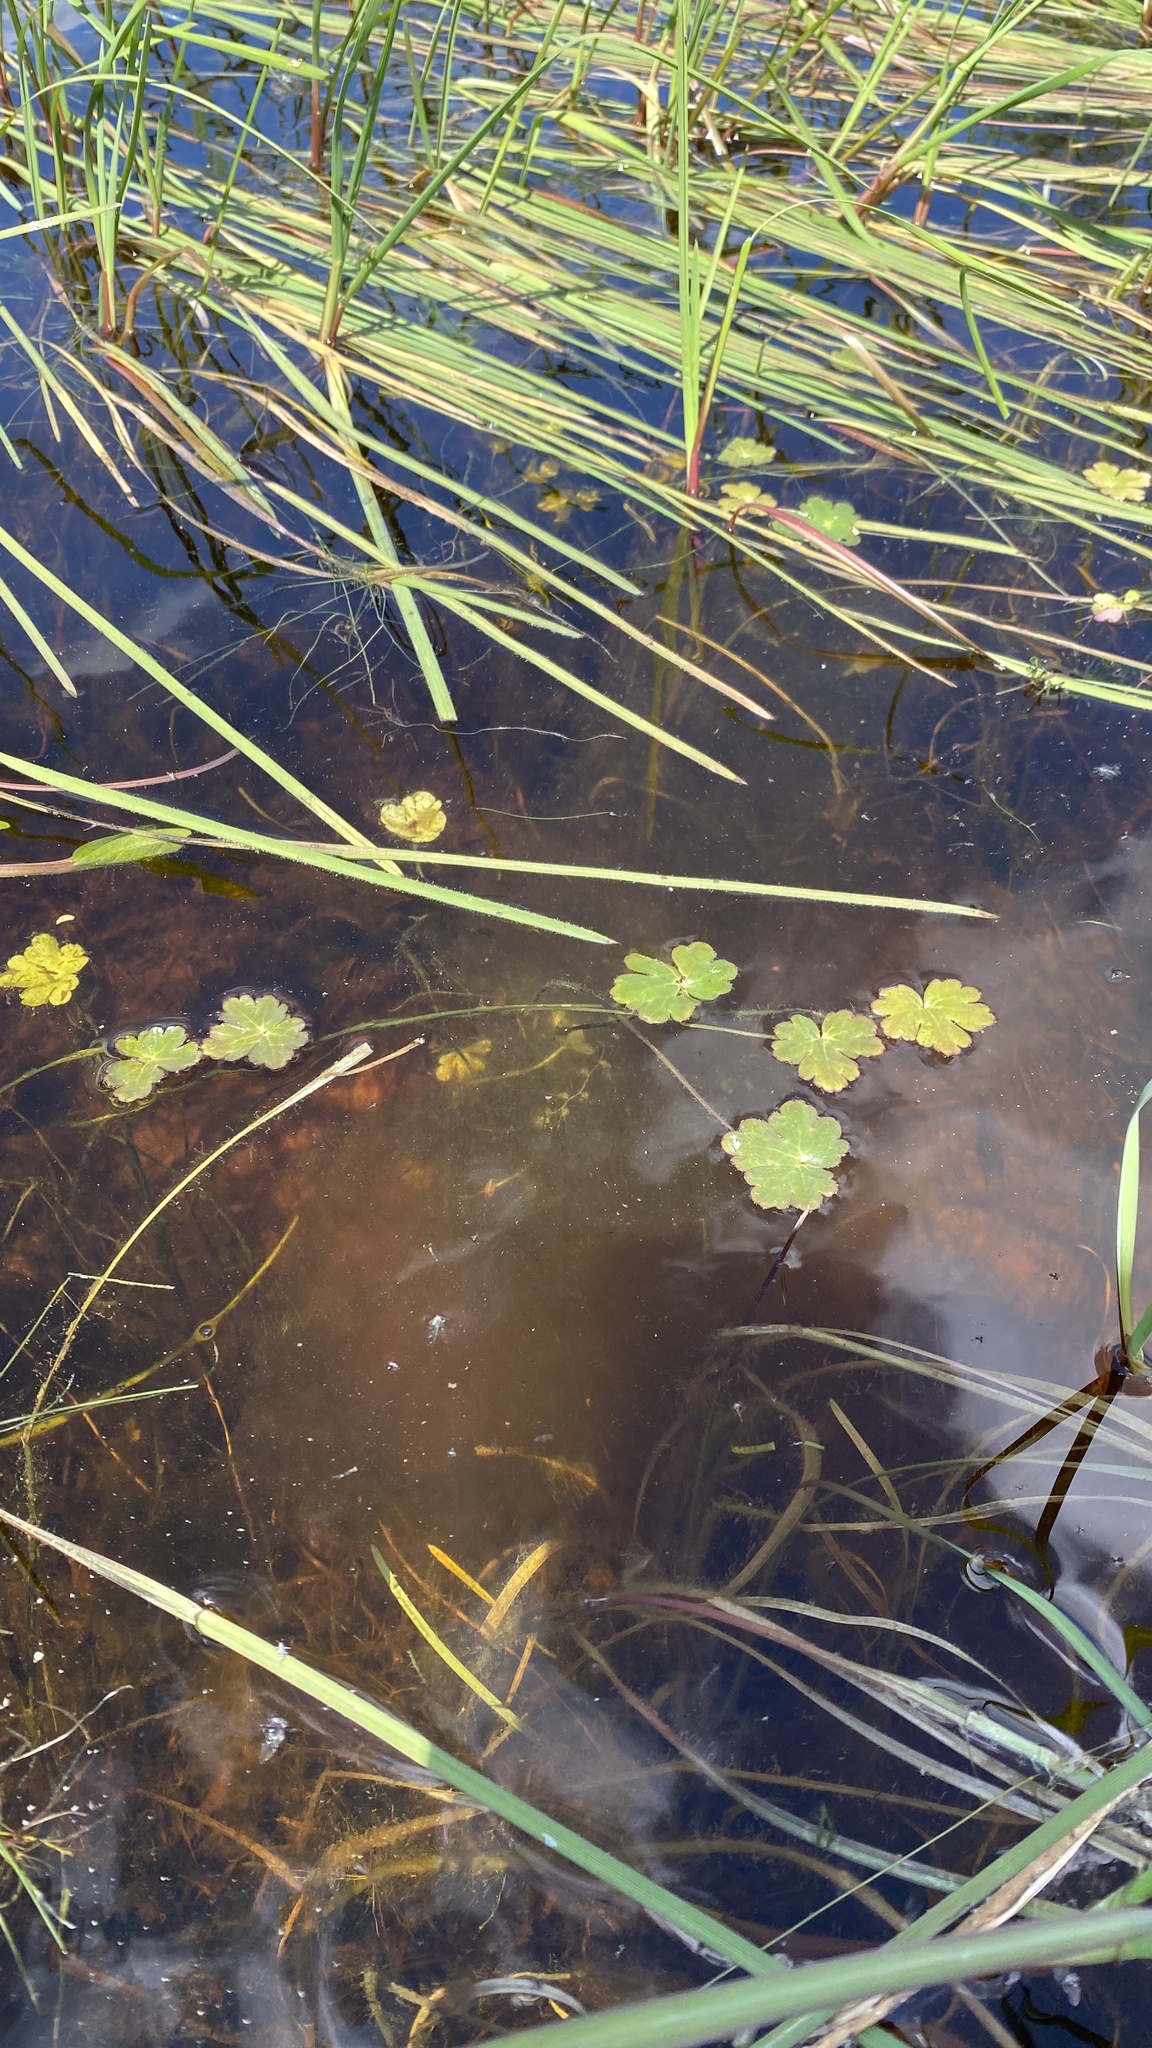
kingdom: Plantae
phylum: Tracheophyta
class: Magnoliopsida
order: Ranunculales
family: Ranunculaceae
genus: Ranunculus
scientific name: Ranunculus sceleratus
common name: Celery-leaved buttercup
